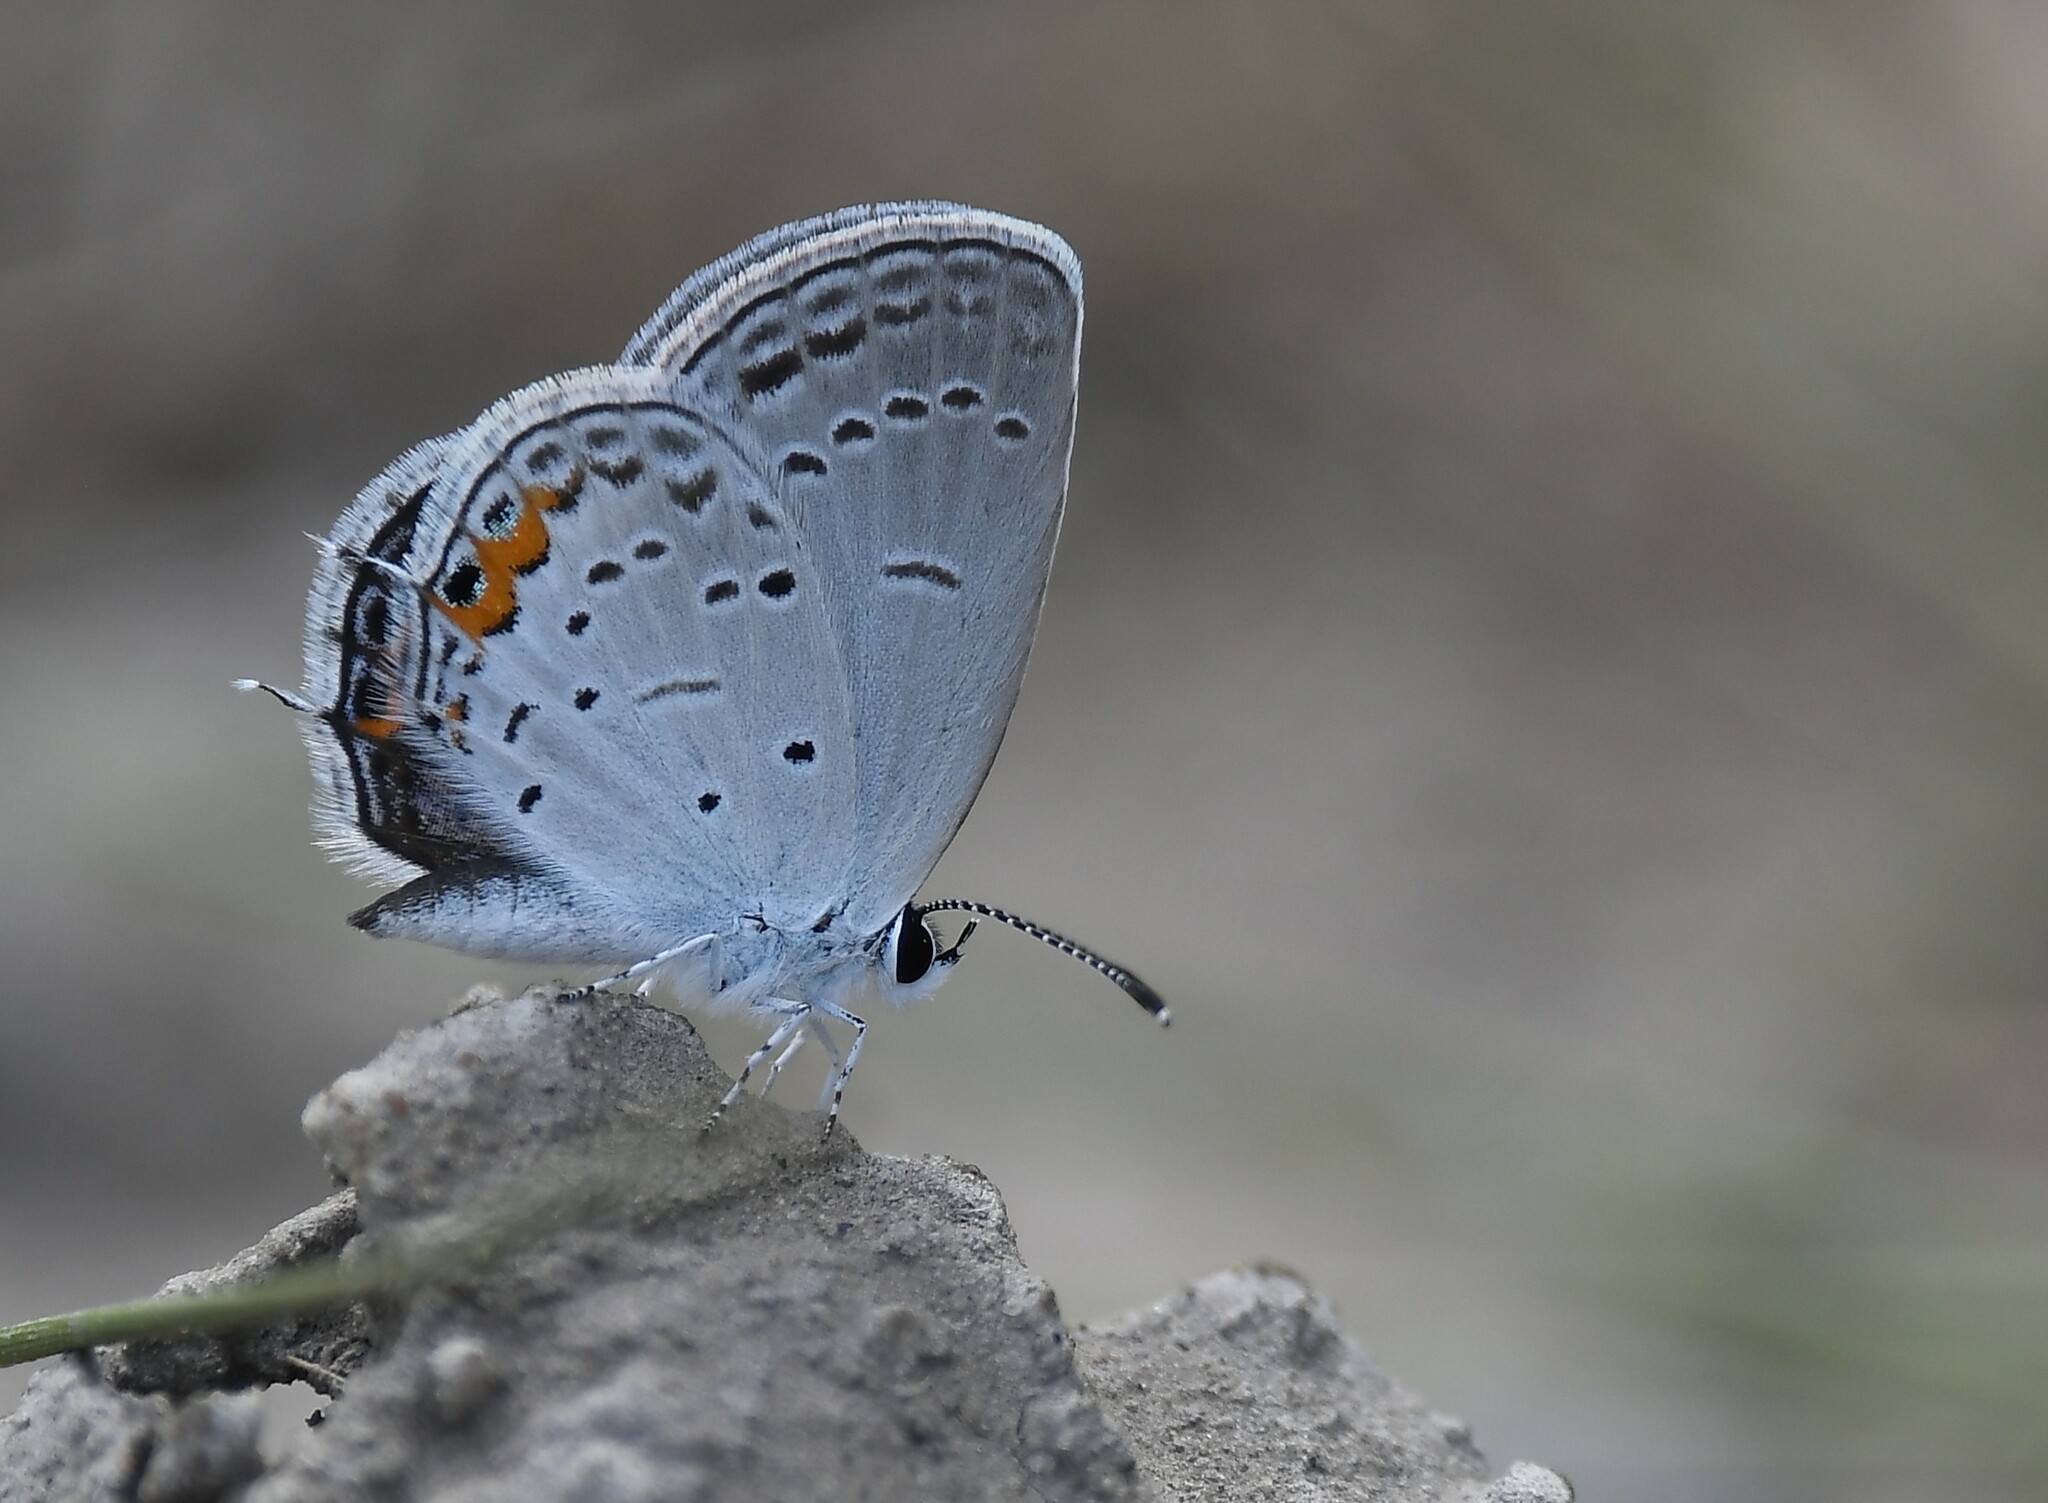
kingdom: Animalia
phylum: Arthropoda
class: Insecta
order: Lepidoptera
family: Lycaenidae
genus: Elkalyce
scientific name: Elkalyce comyntas
